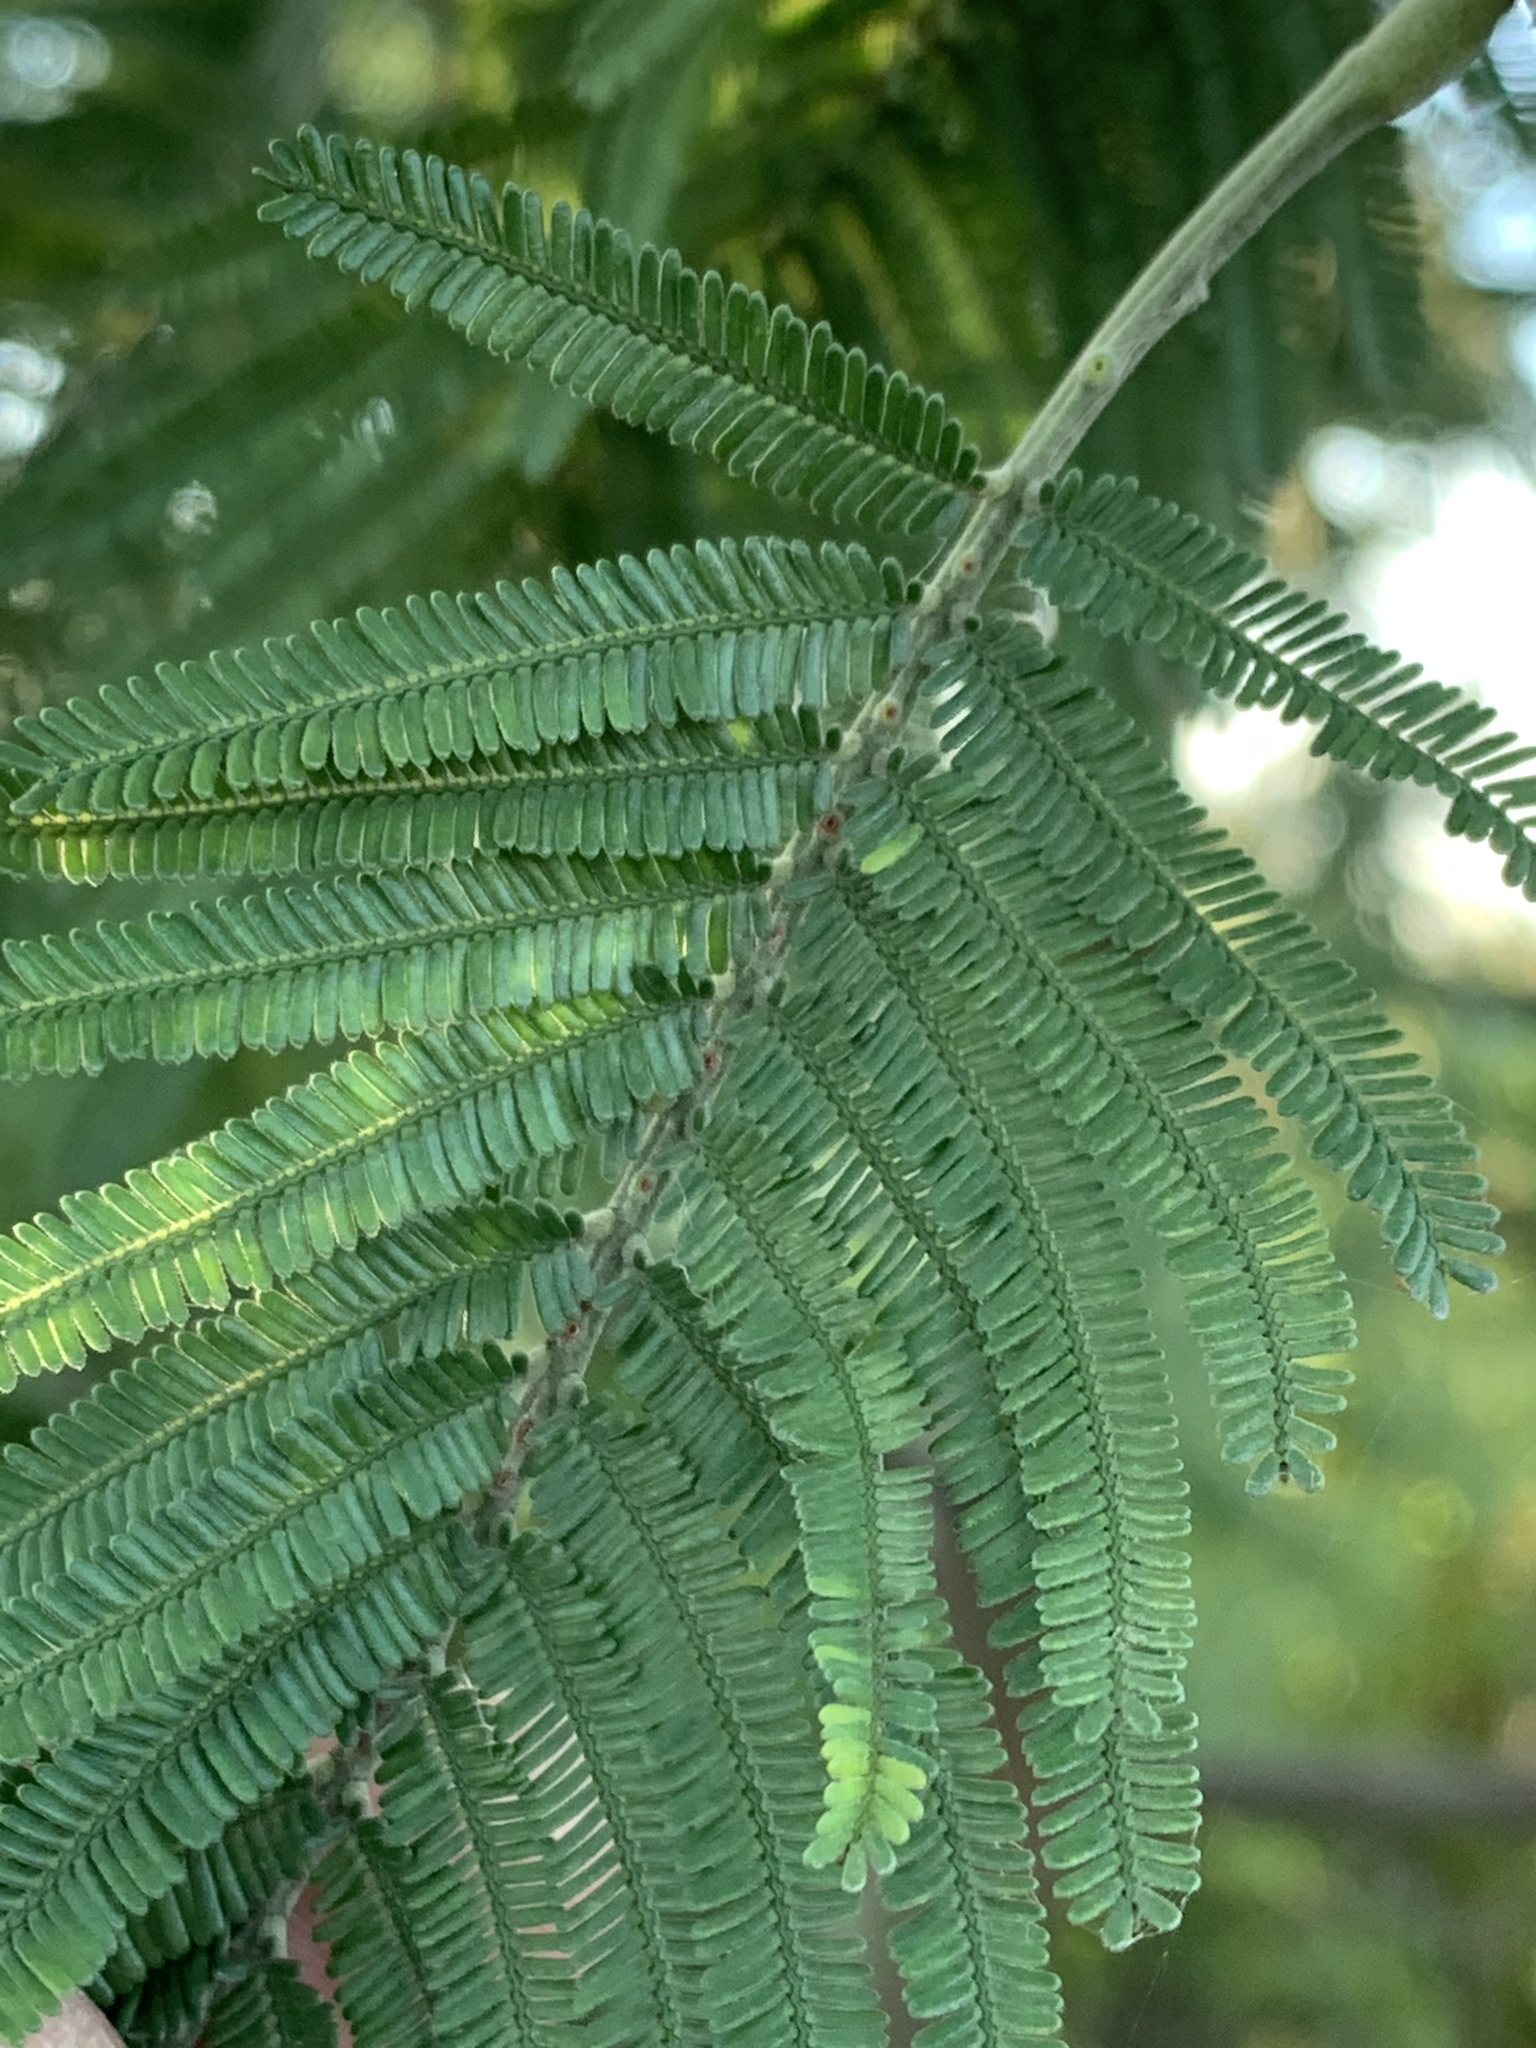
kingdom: Plantae
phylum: Tracheophyta
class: Magnoliopsida
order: Fabales
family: Fabaceae
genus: Acacia
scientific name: Acacia mearnsii
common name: Black wattle
